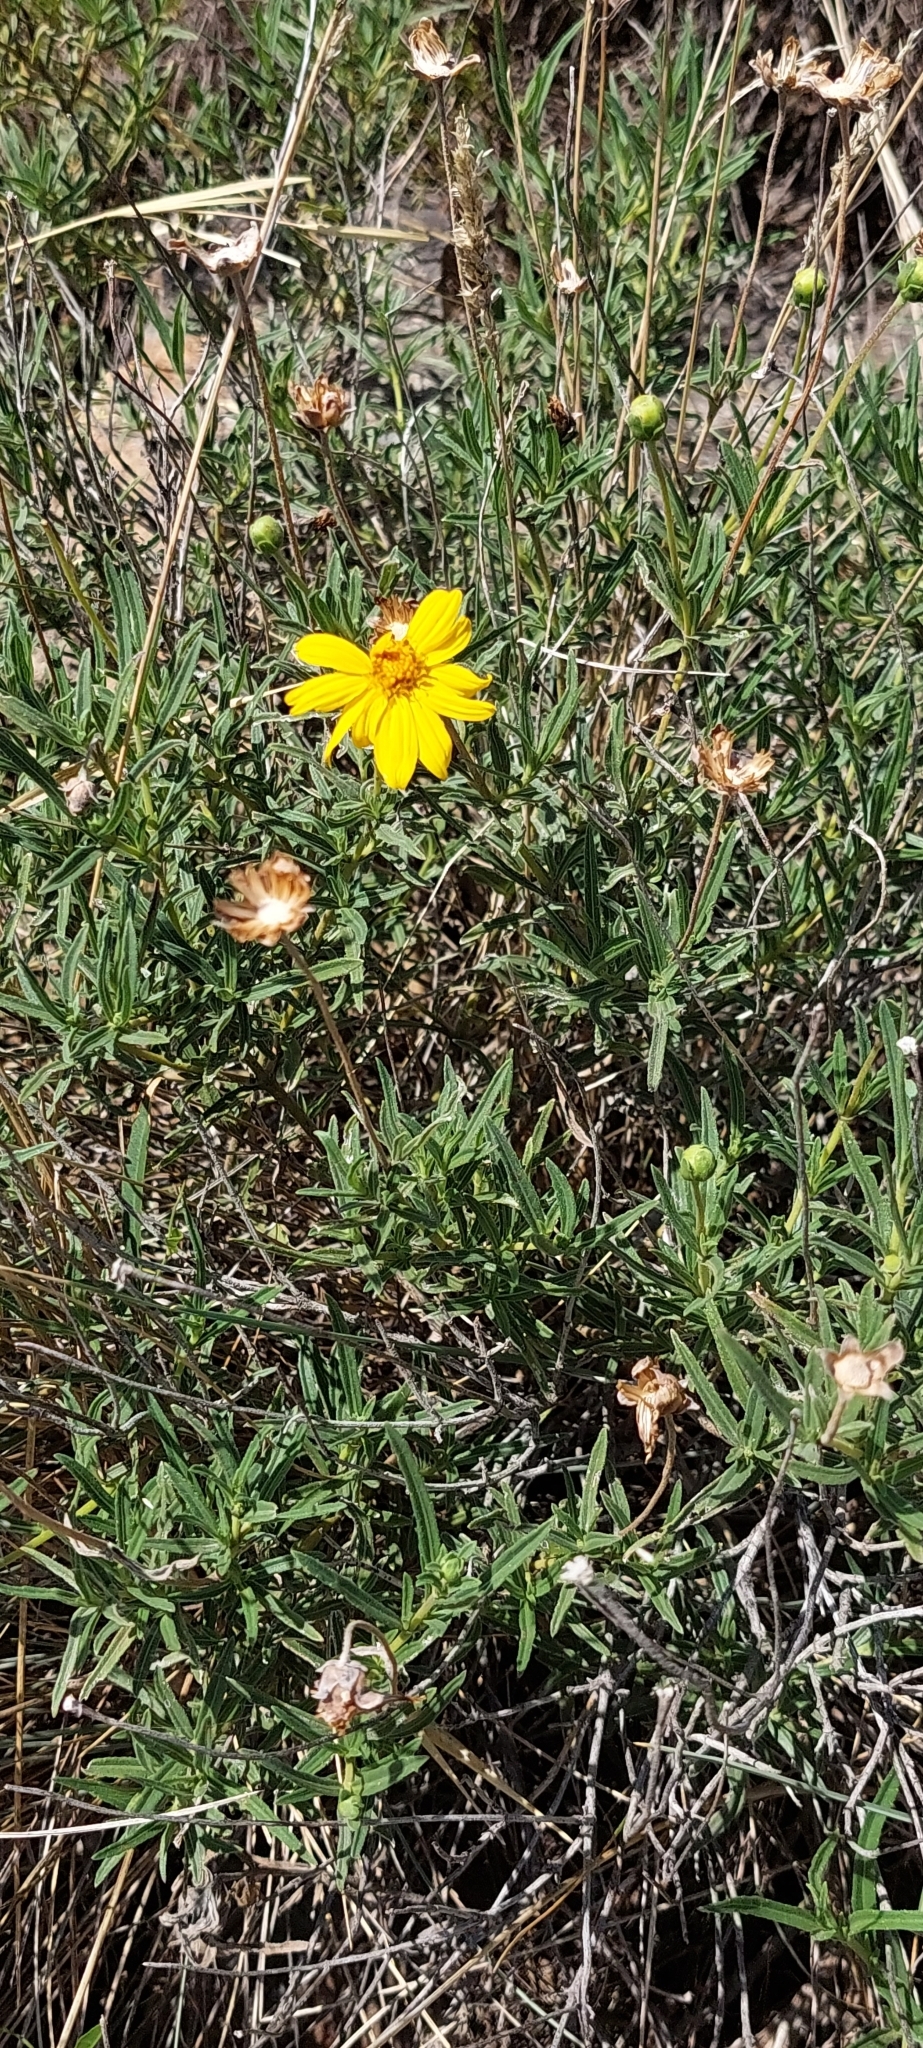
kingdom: Plantae
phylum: Tracheophyta
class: Magnoliopsida
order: Asterales
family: Asteraceae
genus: Zexmenia
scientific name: Zexmenia buphtalmiflora
